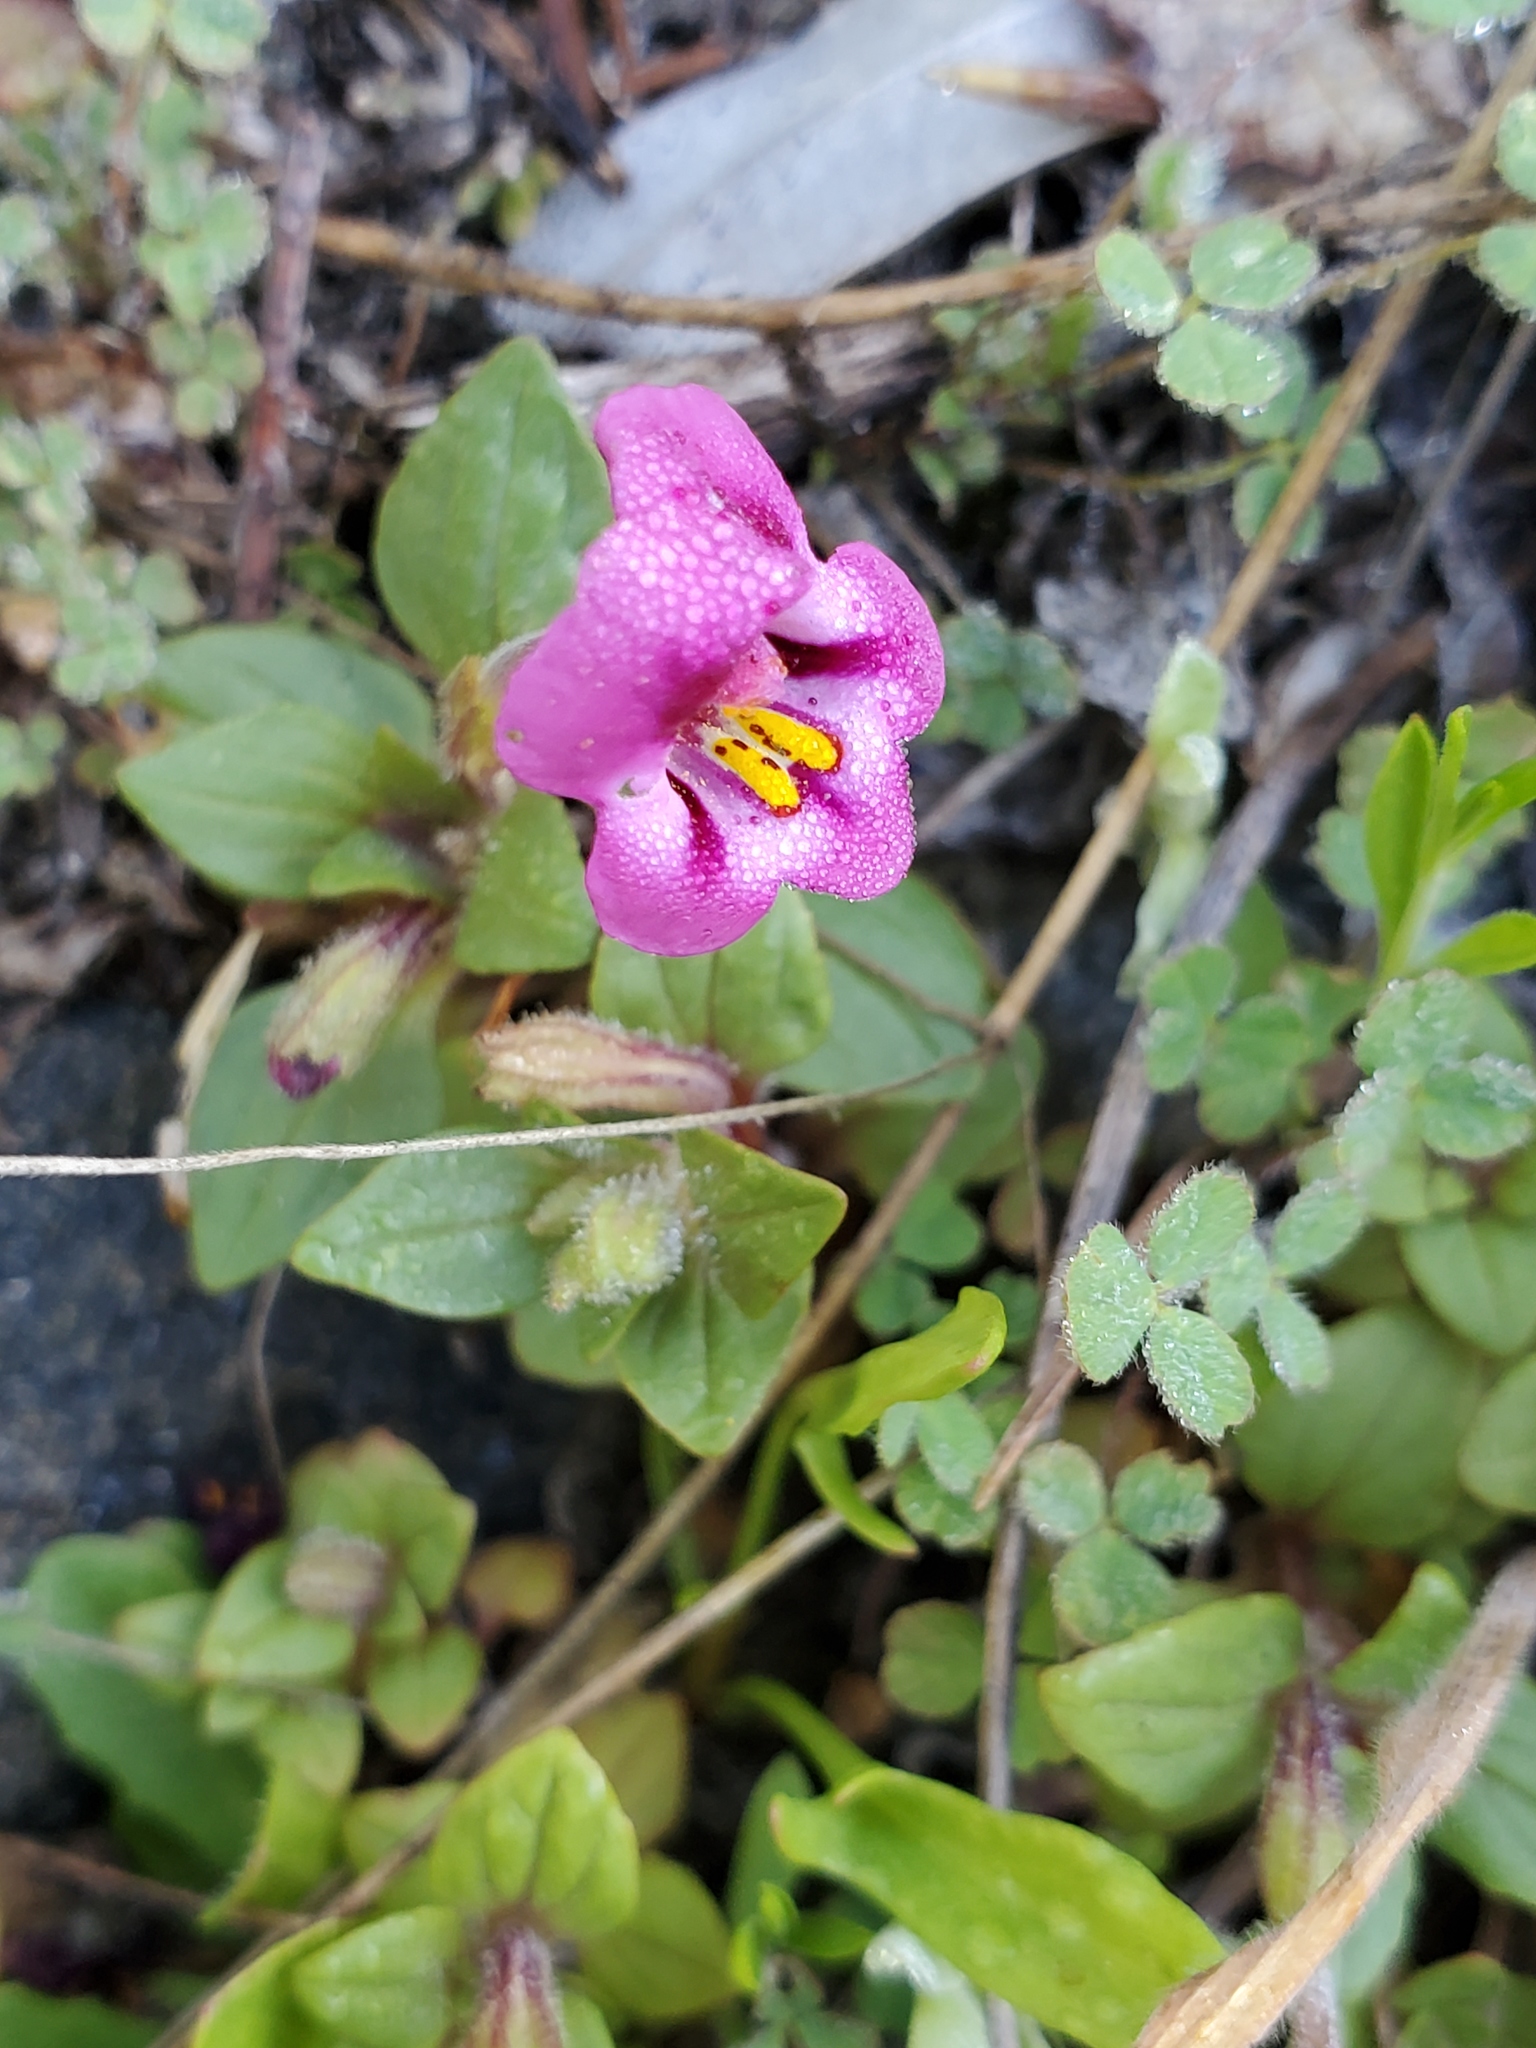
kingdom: Plantae
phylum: Tracheophyta
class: Magnoliopsida
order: Lamiales
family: Phrymaceae
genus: Diplacus
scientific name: Diplacus kelloggii
